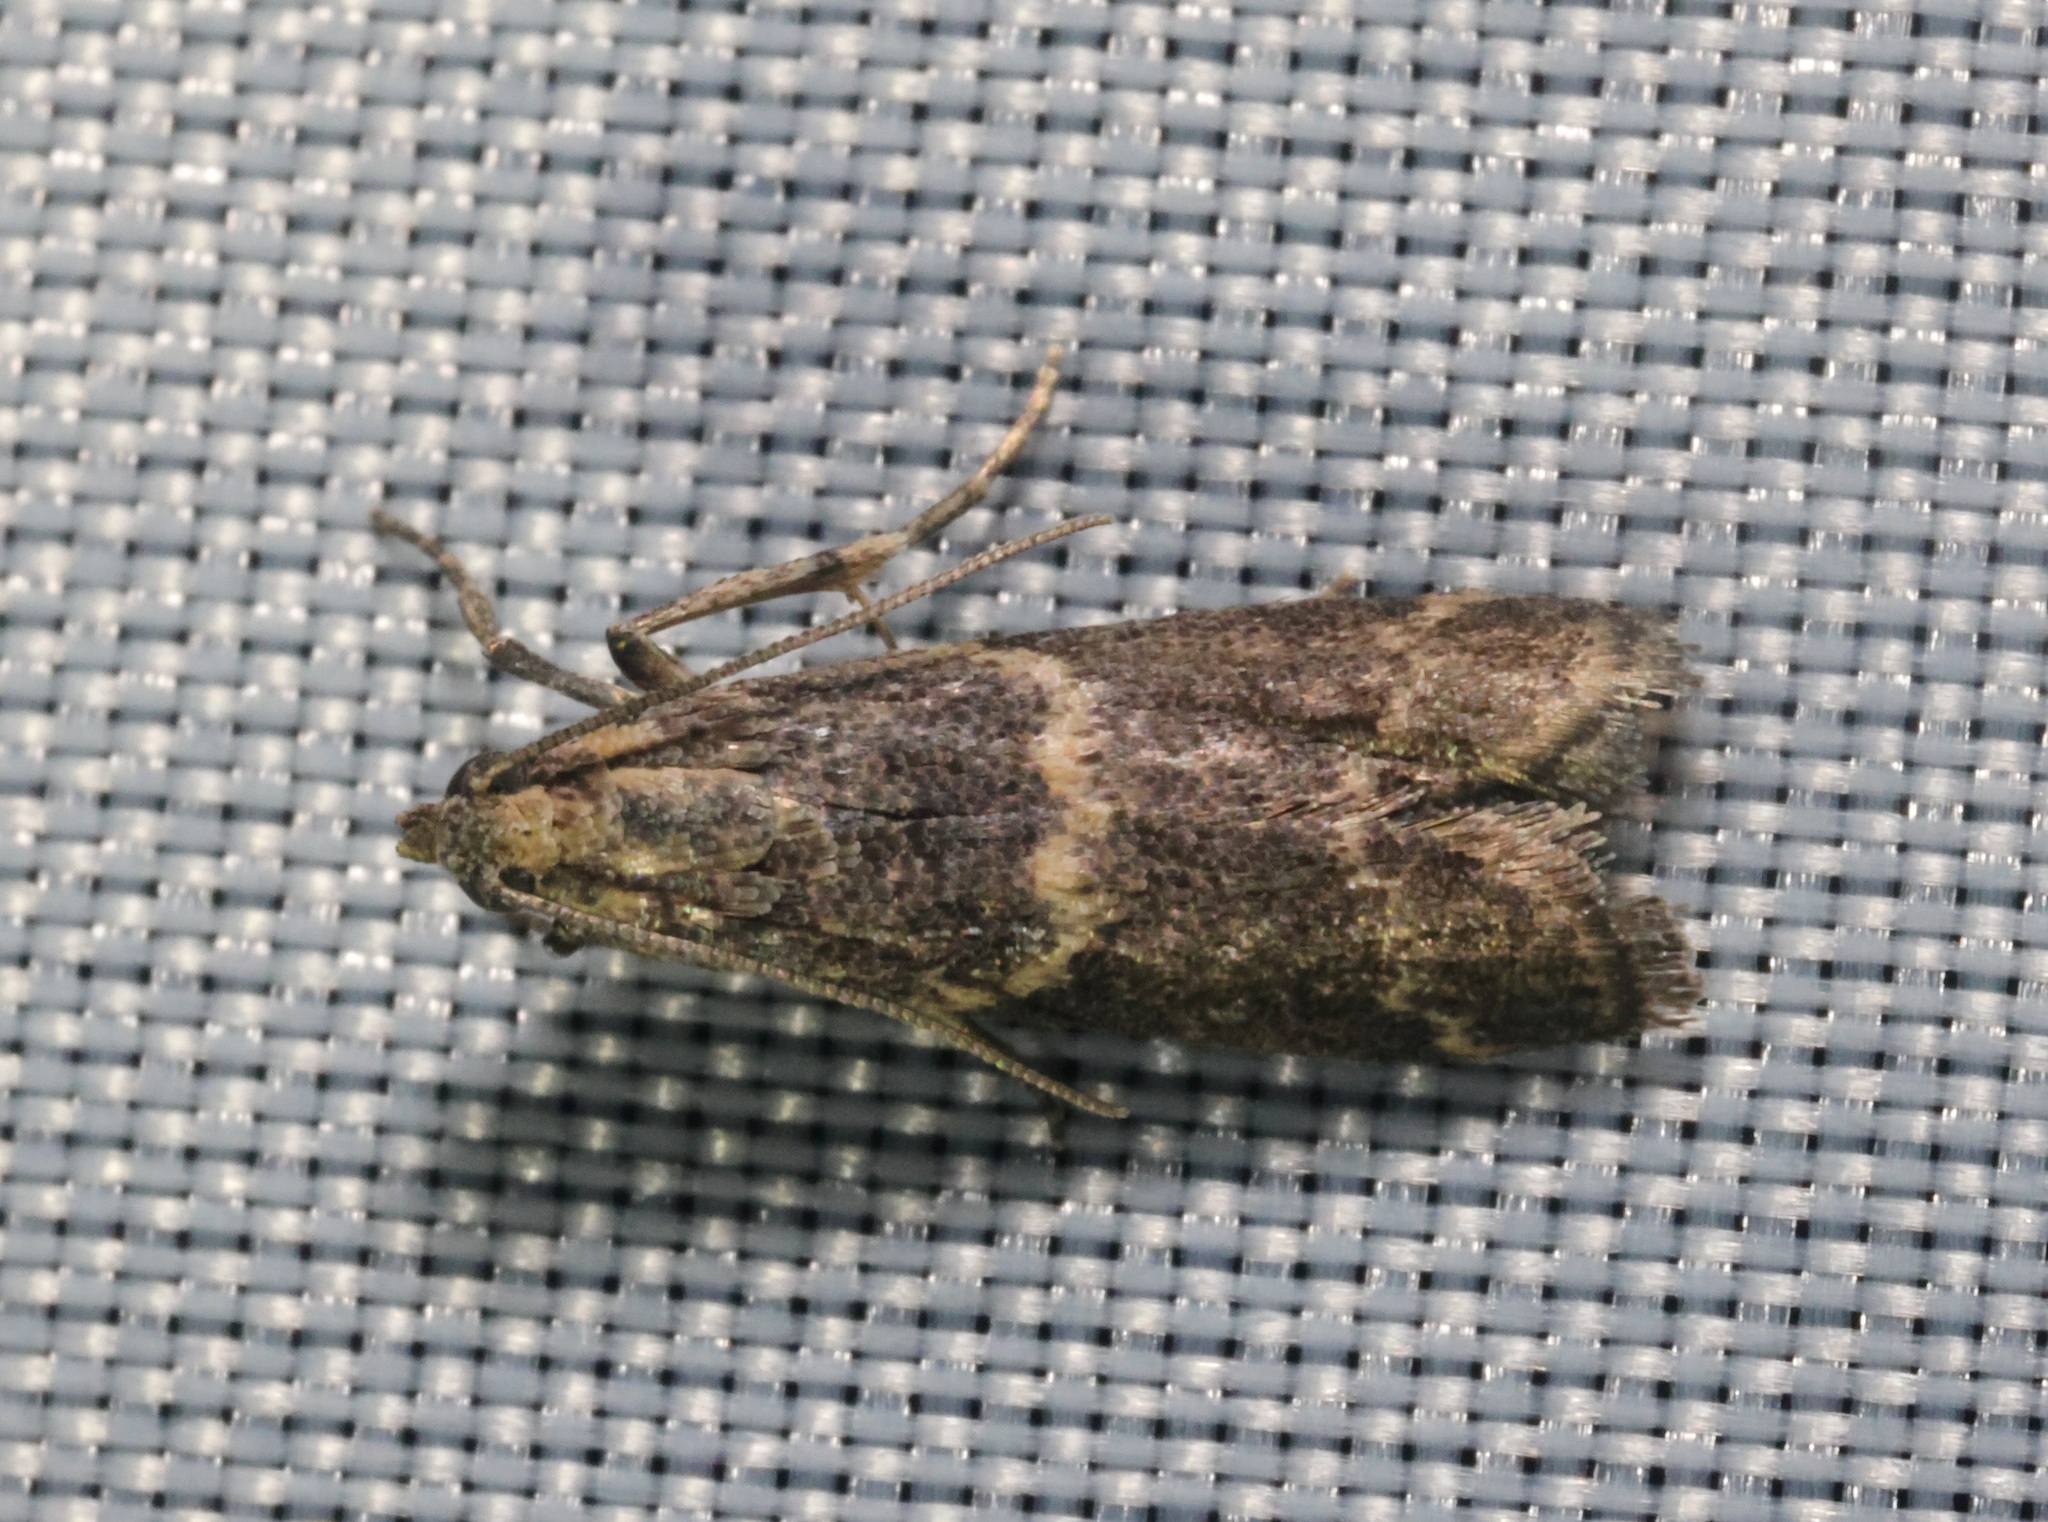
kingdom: Animalia
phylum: Arthropoda
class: Insecta
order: Lepidoptera
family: Pyralidae
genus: Mesciniadia
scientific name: Mesciniadia infractalis
